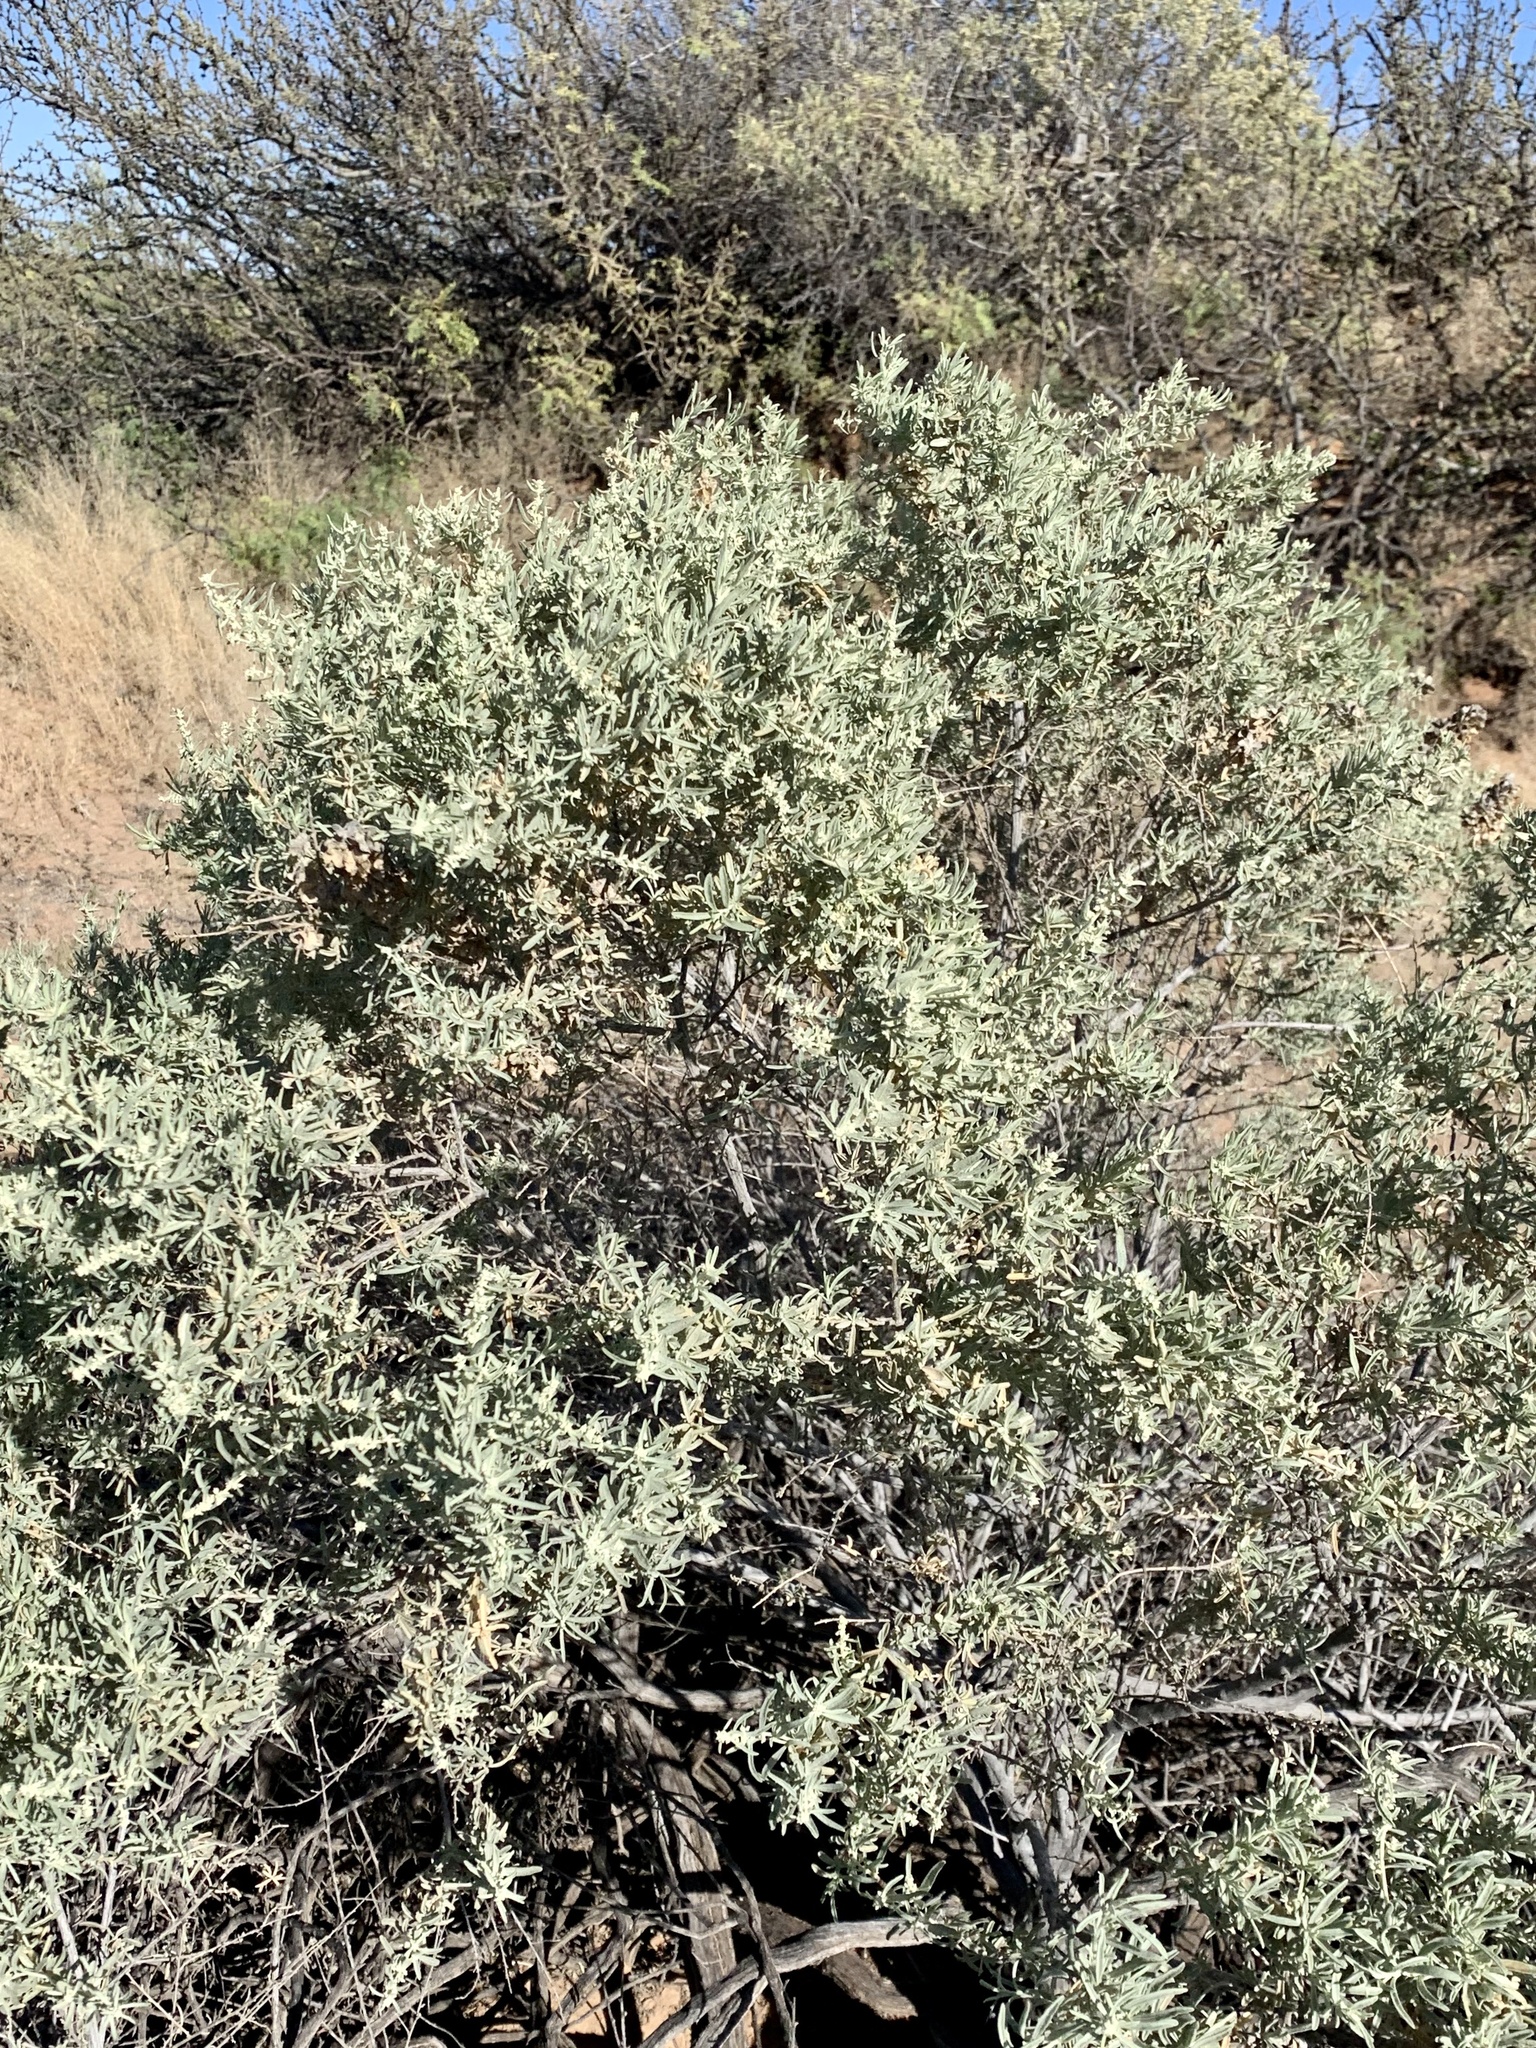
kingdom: Plantae
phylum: Tracheophyta
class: Magnoliopsida
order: Caryophyllales
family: Amaranthaceae
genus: Atriplex
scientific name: Atriplex canescens
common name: Four-wing saltbush
